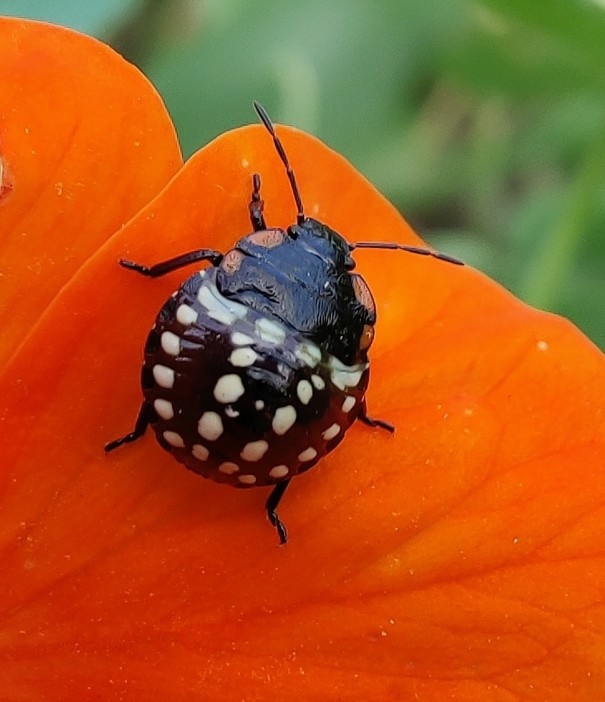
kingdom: Animalia
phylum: Arthropoda
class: Insecta
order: Hemiptera
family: Pentatomidae
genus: Nezara
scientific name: Nezara viridula
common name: Southern green stink bug
